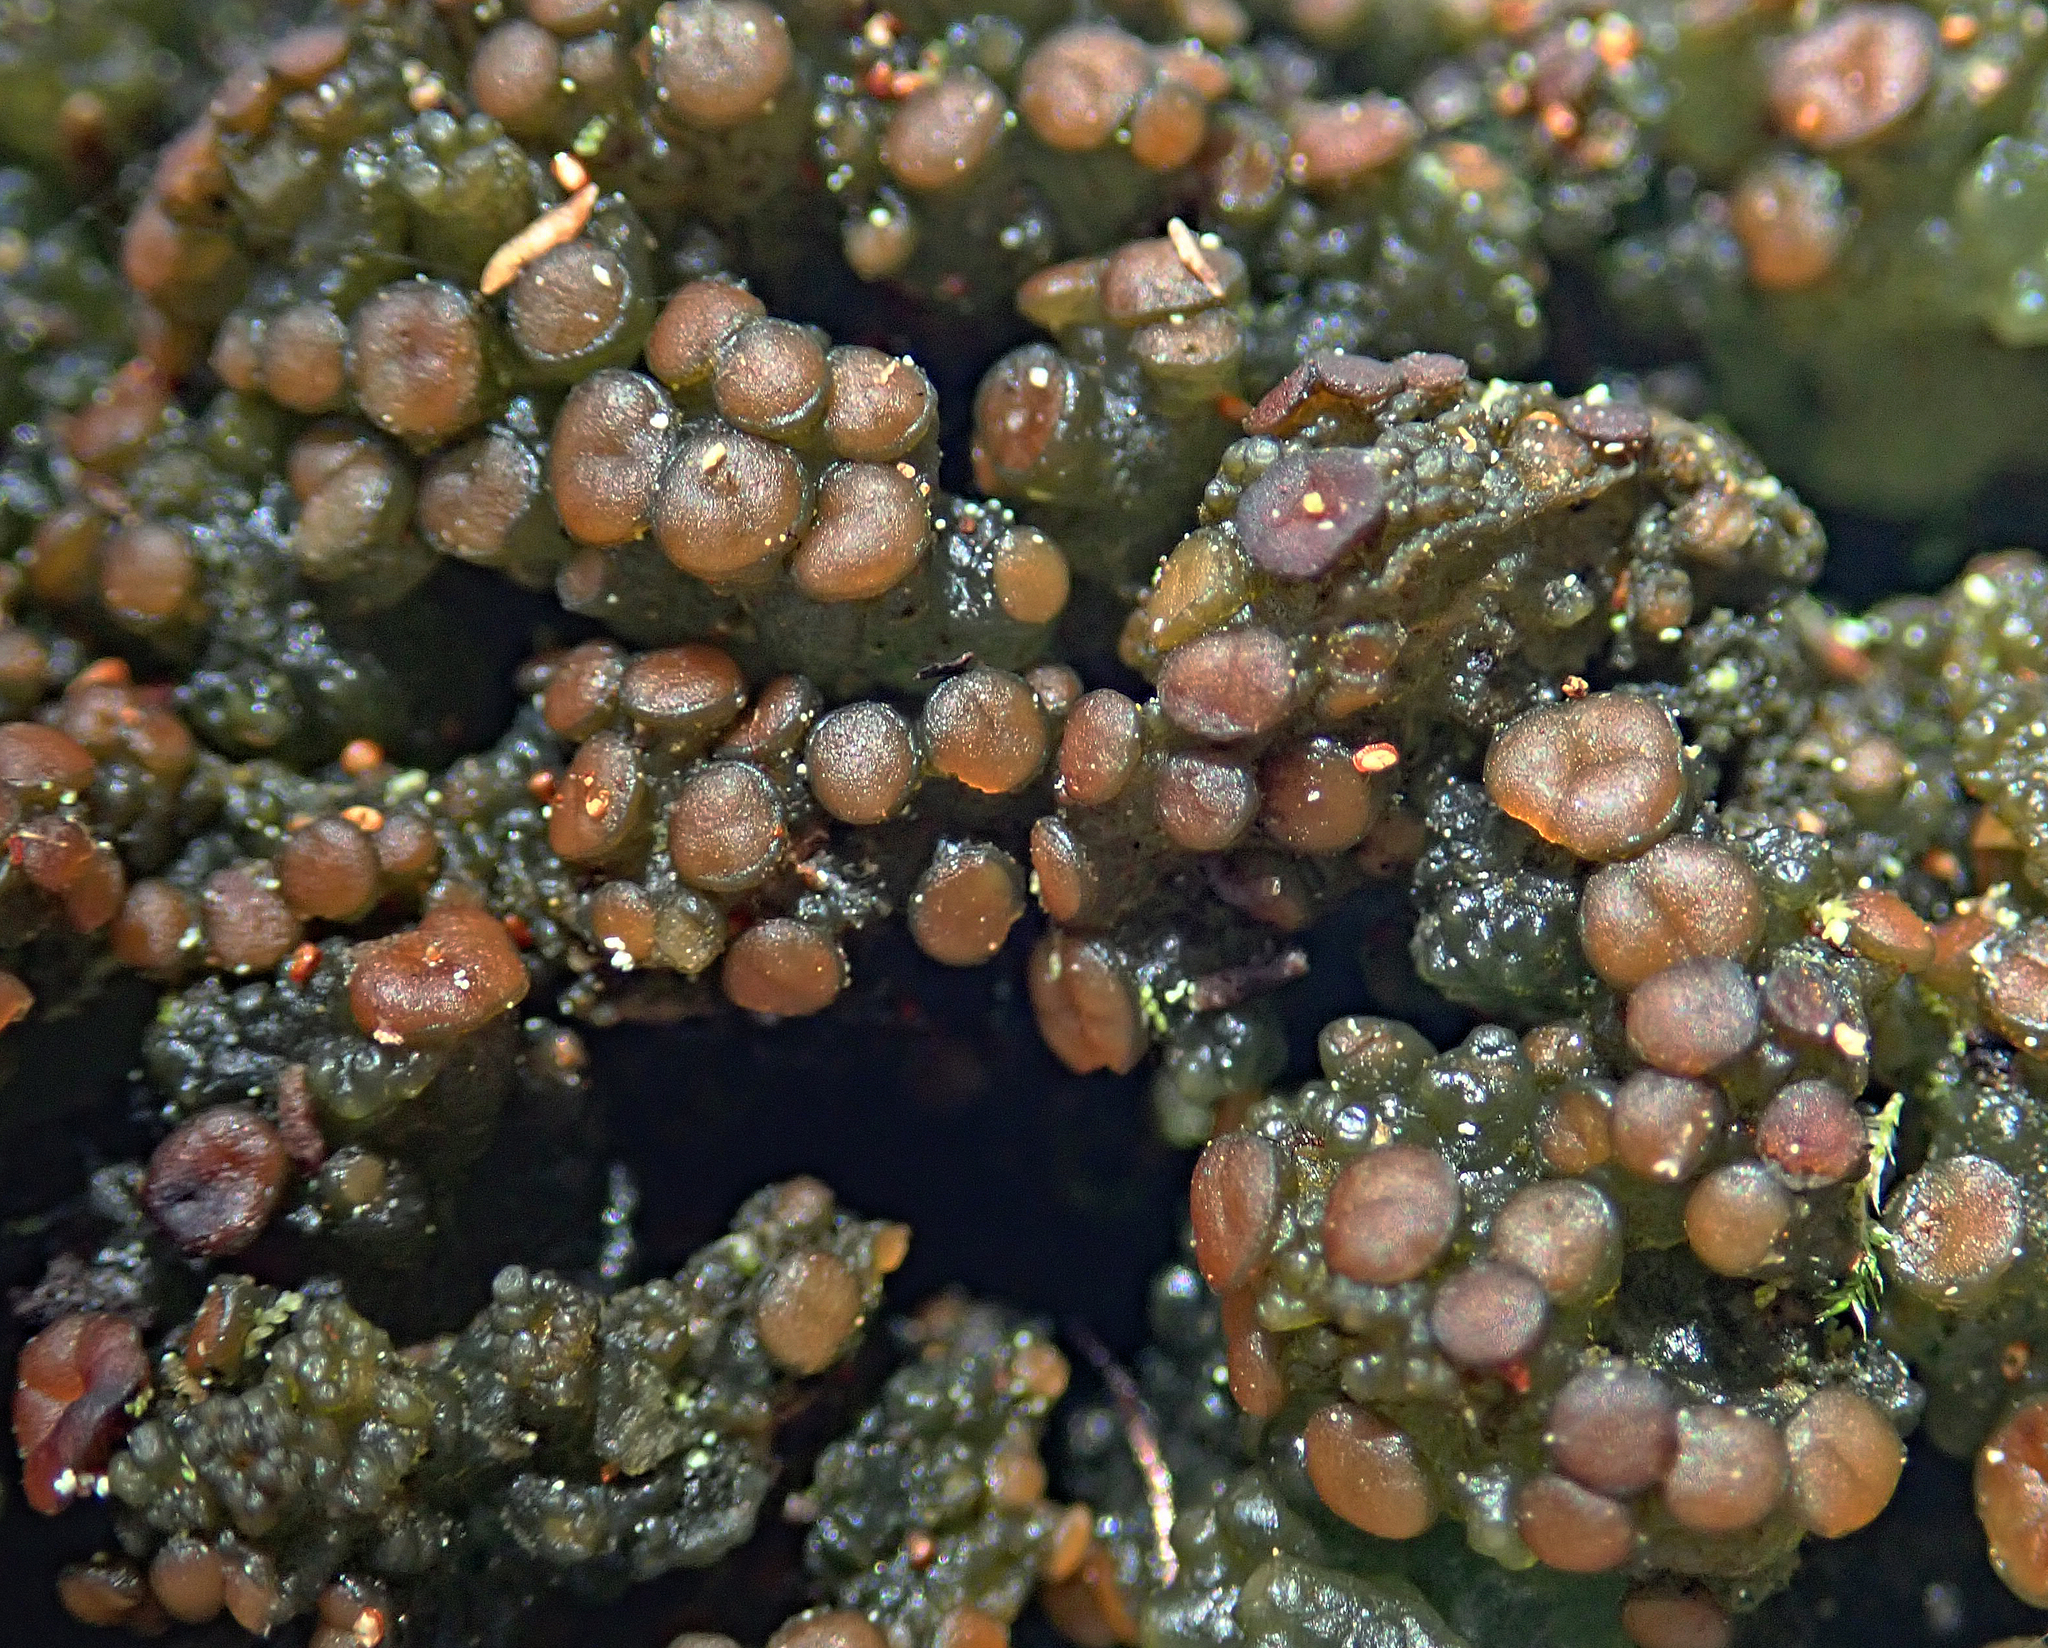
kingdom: Fungi
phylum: Ascomycota
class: Lecanoromycetes
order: Arctomiales
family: Arctomiaceae
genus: Arctomia
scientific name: Arctomia fascicularis
